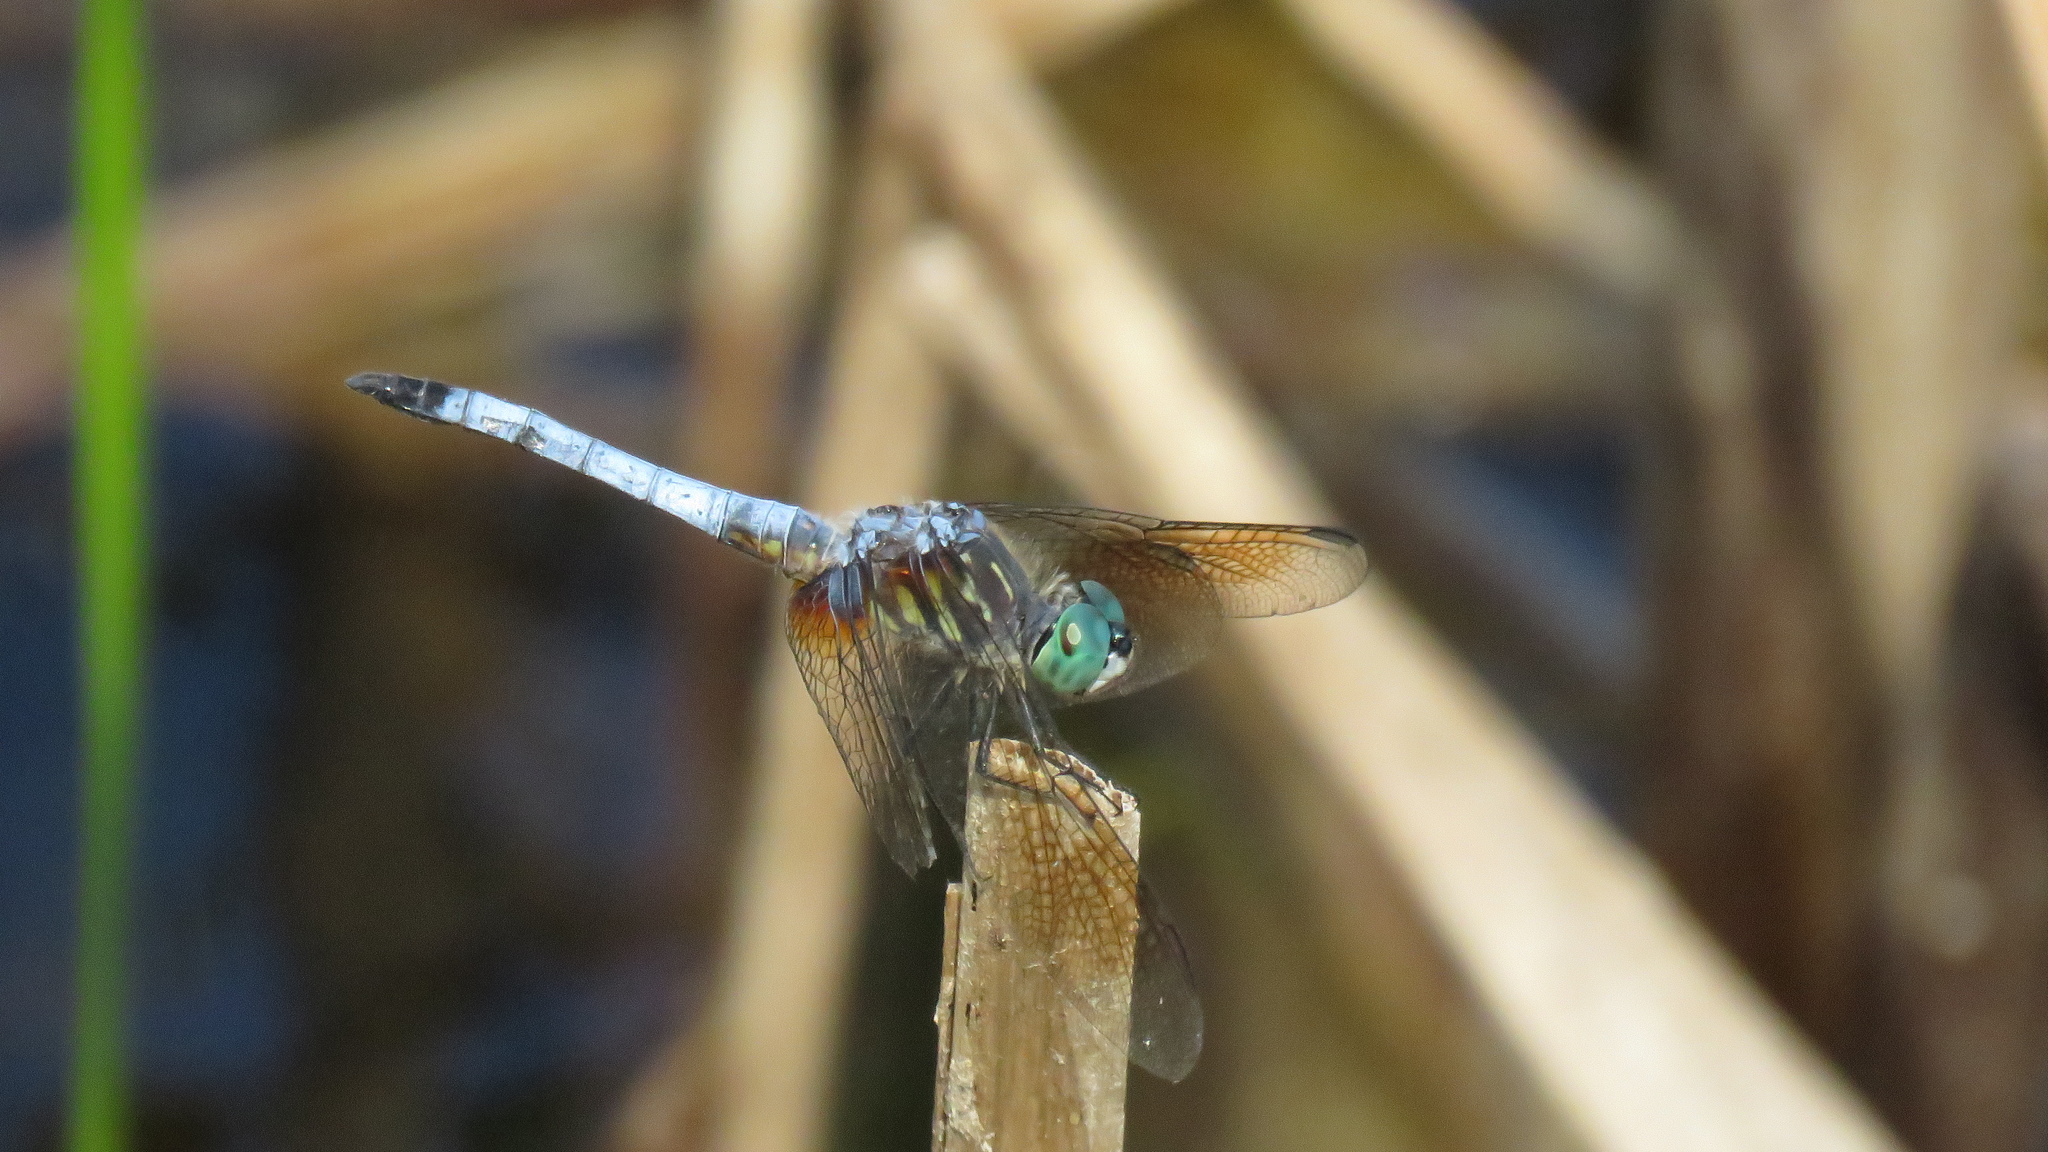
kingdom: Animalia
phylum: Arthropoda
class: Insecta
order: Odonata
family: Libellulidae
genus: Pachydiplax
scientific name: Pachydiplax longipennis
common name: Blue dasher
